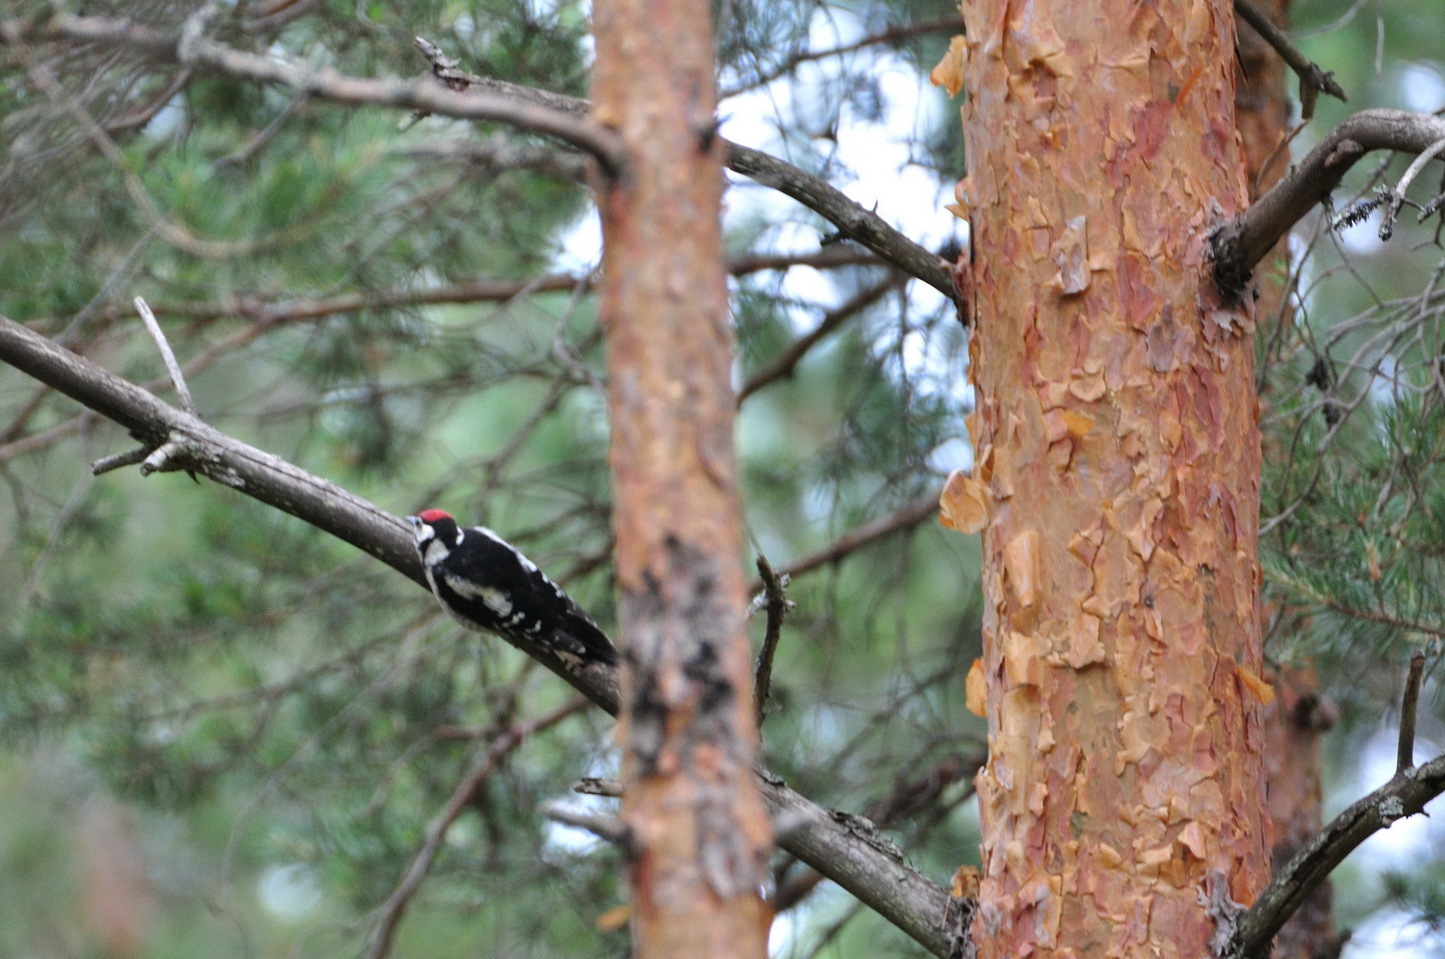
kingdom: Animalia
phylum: Chordata
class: Aves
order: Piciformes
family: Picidae
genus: Dendrocopos
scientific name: Dendrocopos major
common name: Great spotted woodpecker
